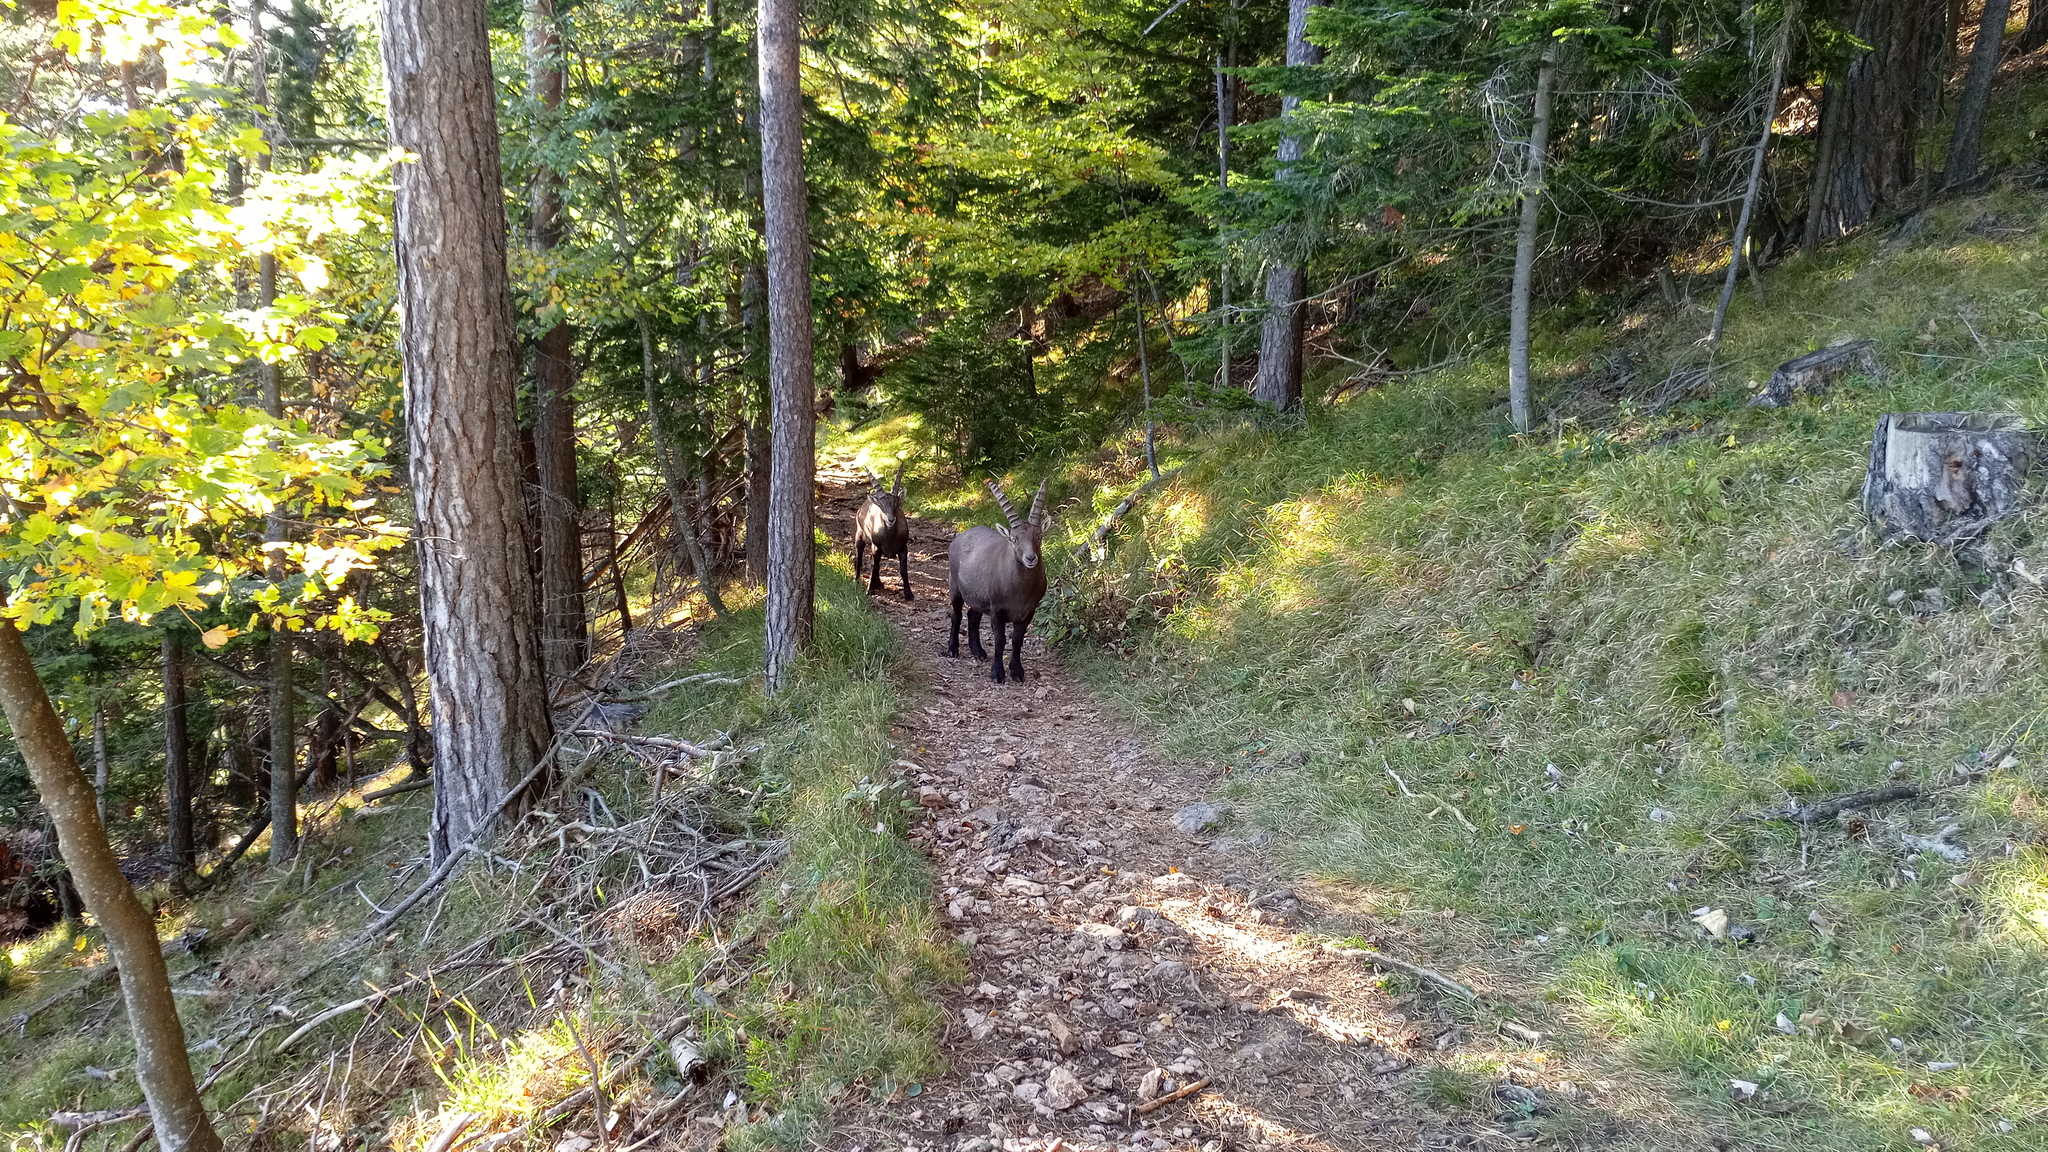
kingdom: Animalia
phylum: Chordata
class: Mammalia
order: Artiodactyla
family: Bovidae
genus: Capra
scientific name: Capra ibex
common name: Alpine ibex
